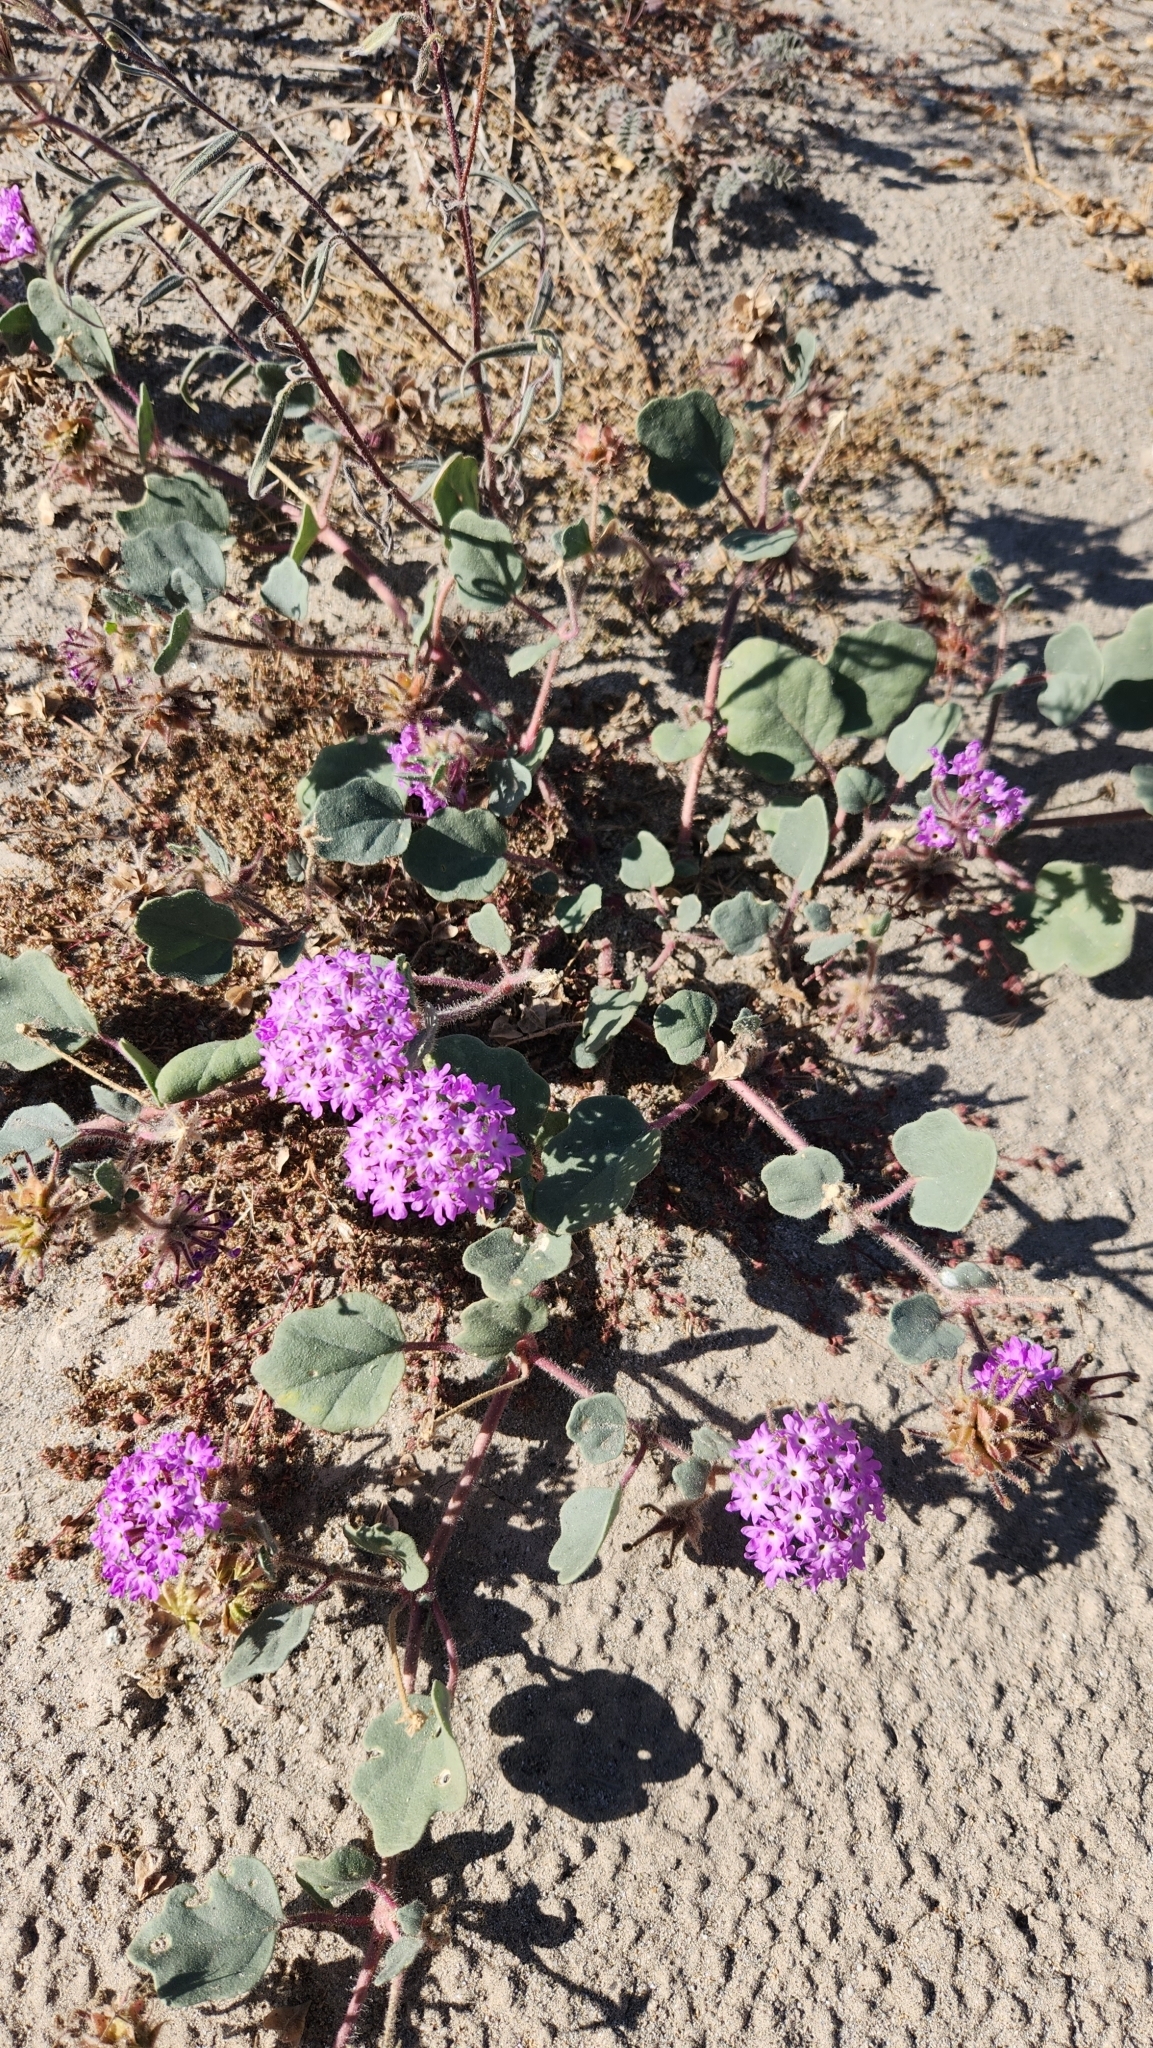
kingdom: Plantae
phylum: Tracheophyta
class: Magnoliopsida
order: Caryophyllales
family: Nyctaginaceae
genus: Abronia
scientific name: Abronia villosa
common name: Desert sand-verbena
